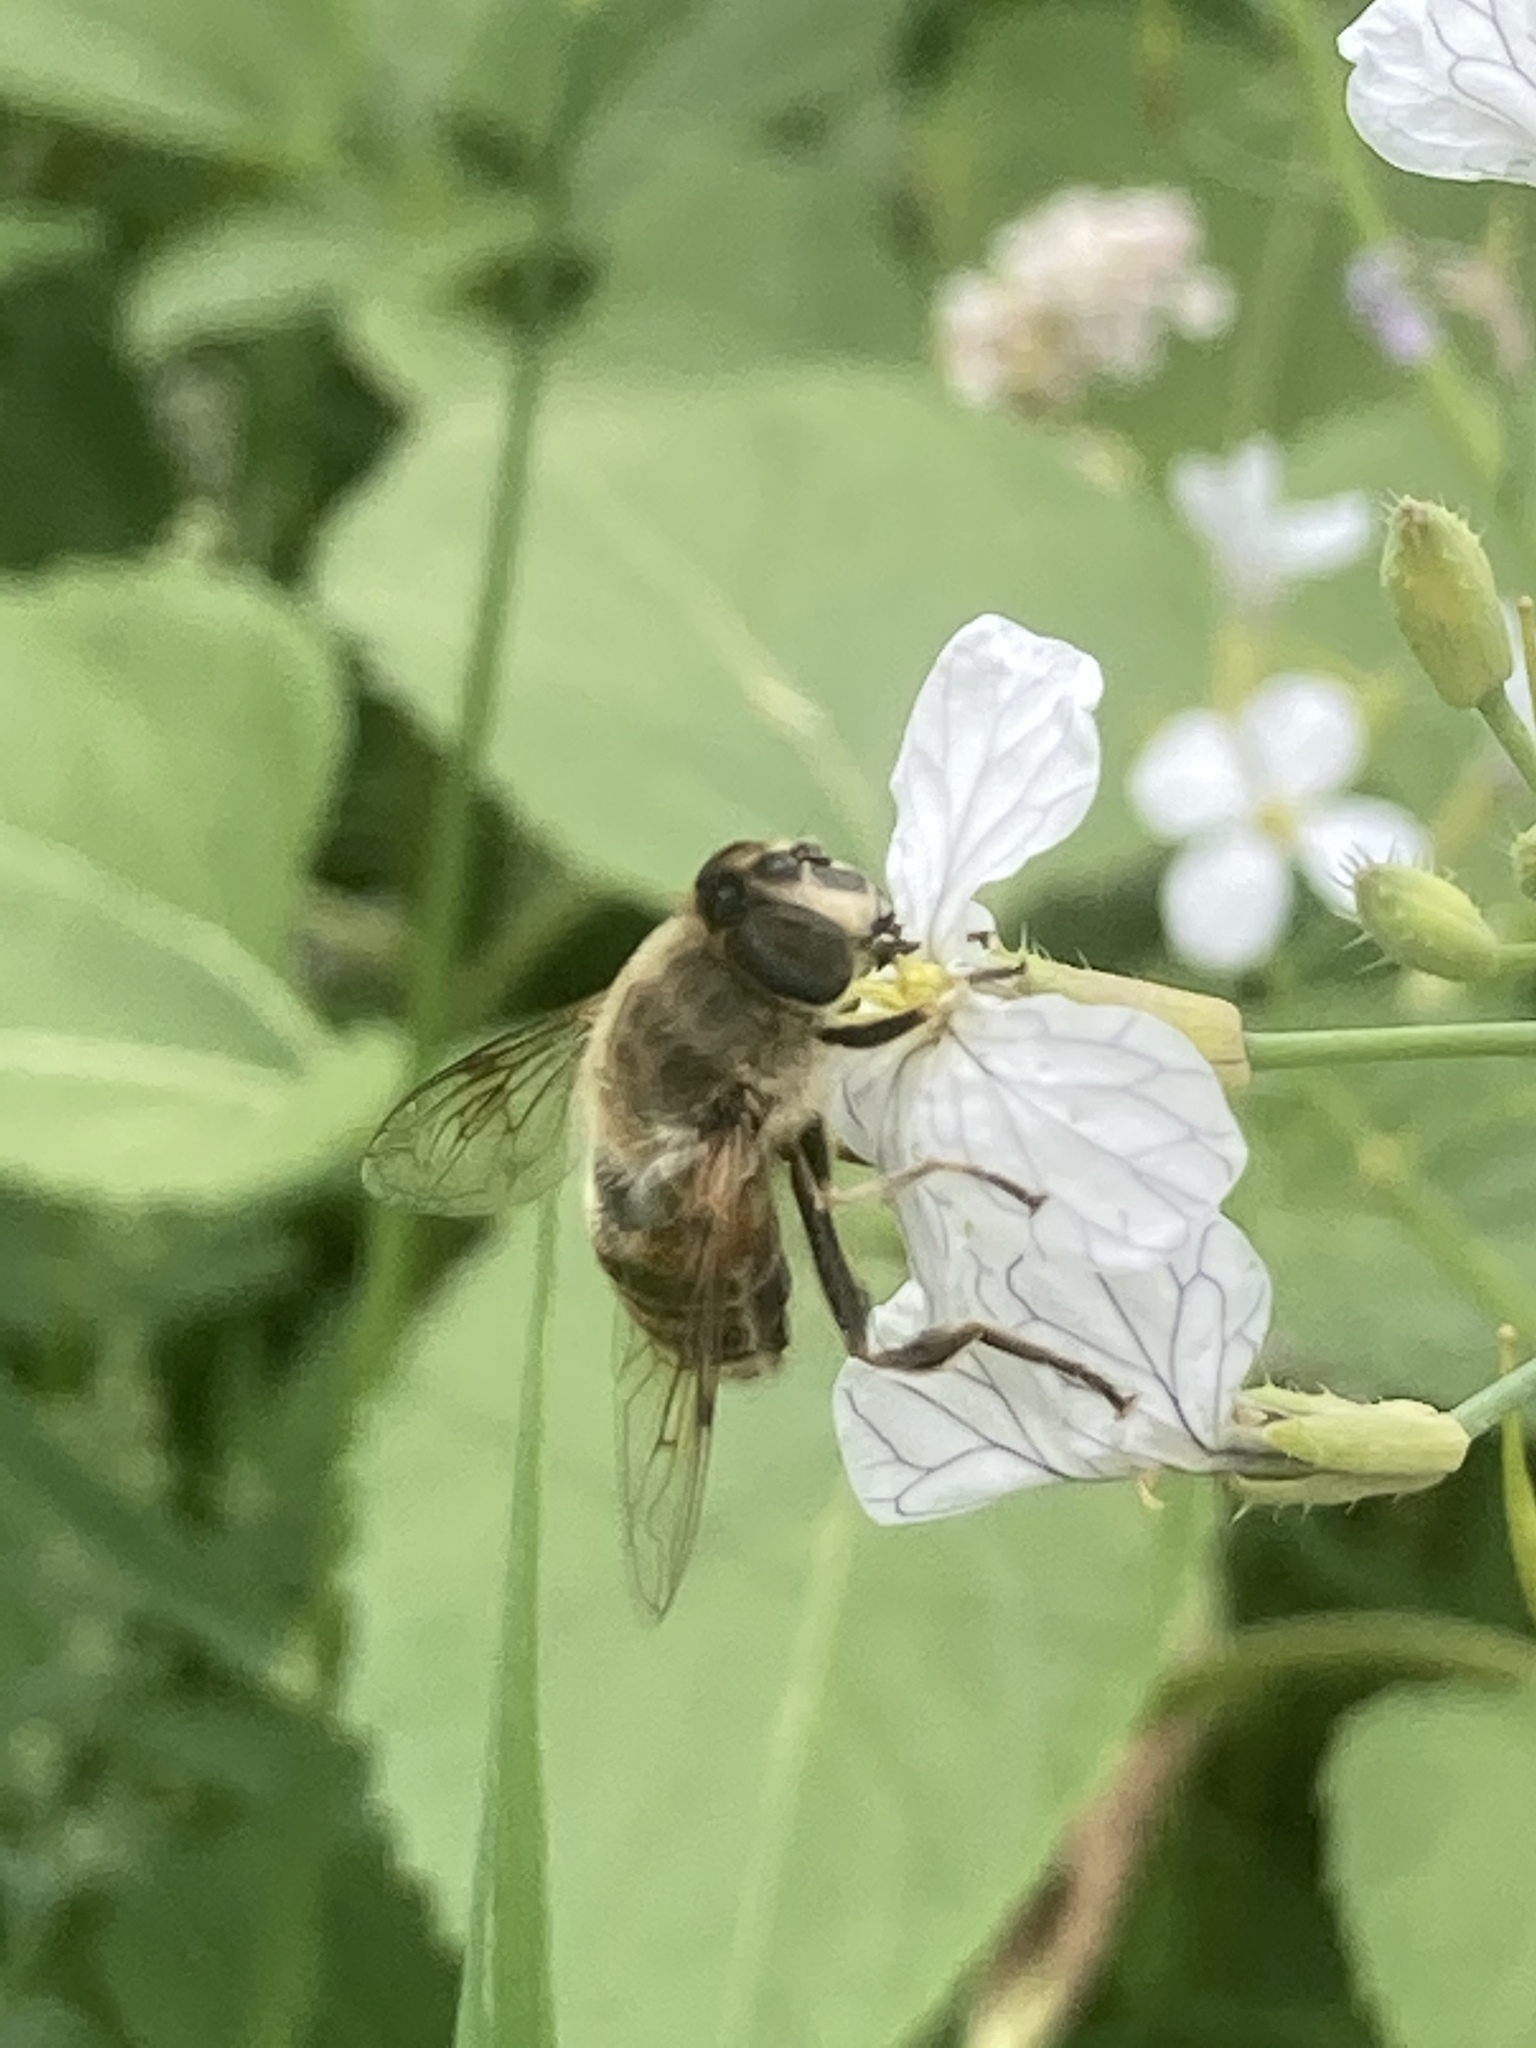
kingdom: Animalia
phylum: Arthropoda
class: Insecta
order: Diptera
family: Syrphidae
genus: Eristalis
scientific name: Eristalis tenax
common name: Drone fly
